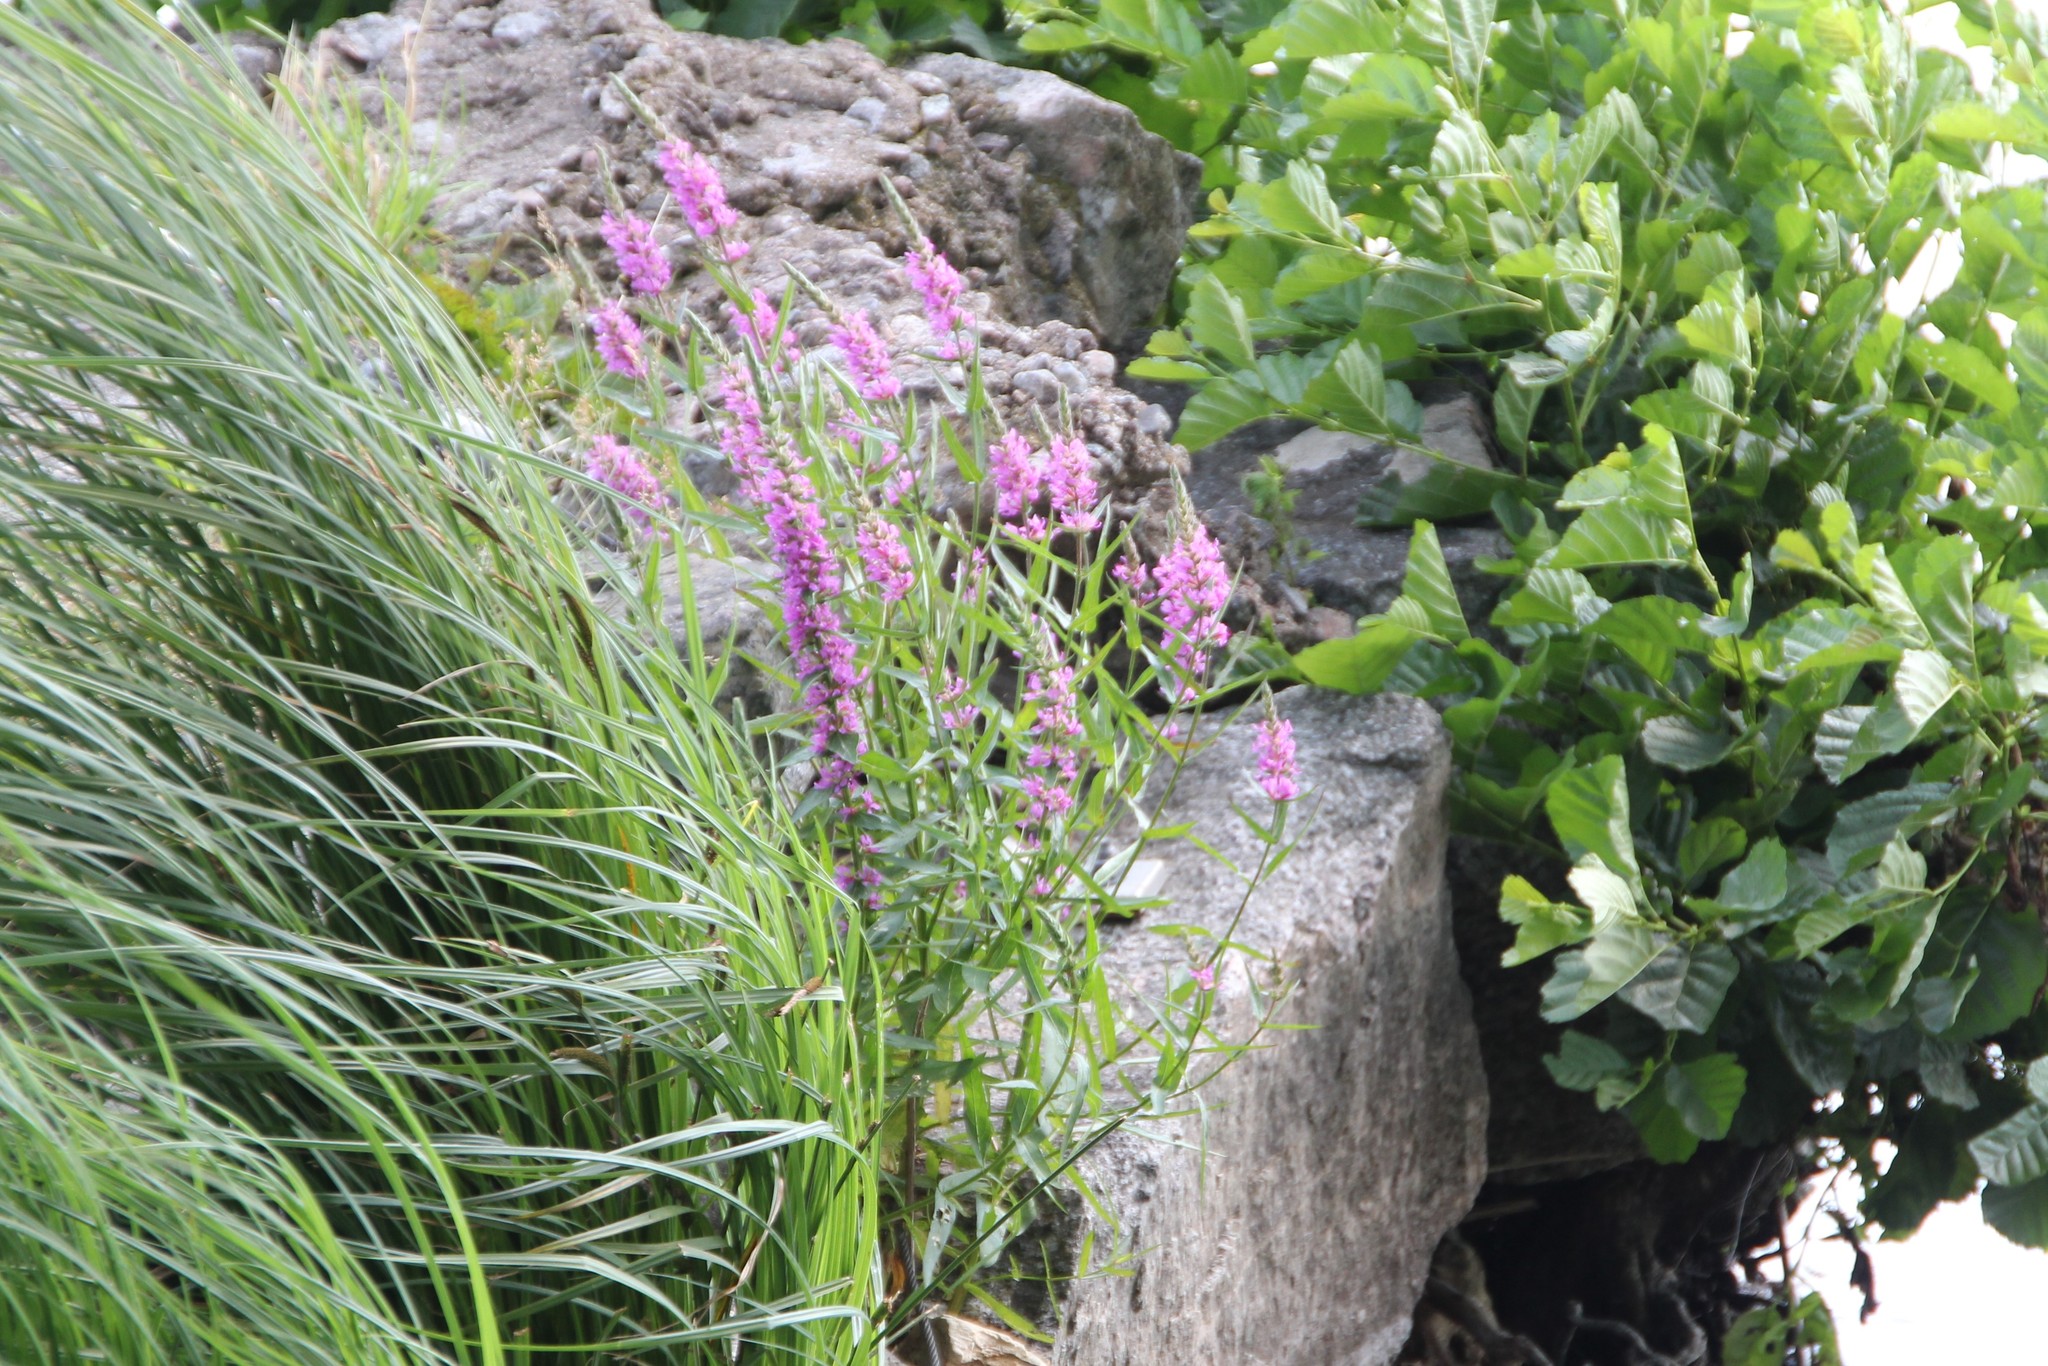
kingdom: Plantae
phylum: Tracheophyta
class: Magnoliopsida
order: Myrtales
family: Lythraceae
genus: Lythrum
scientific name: Lythrum salicaria
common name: Purple loosestrife
